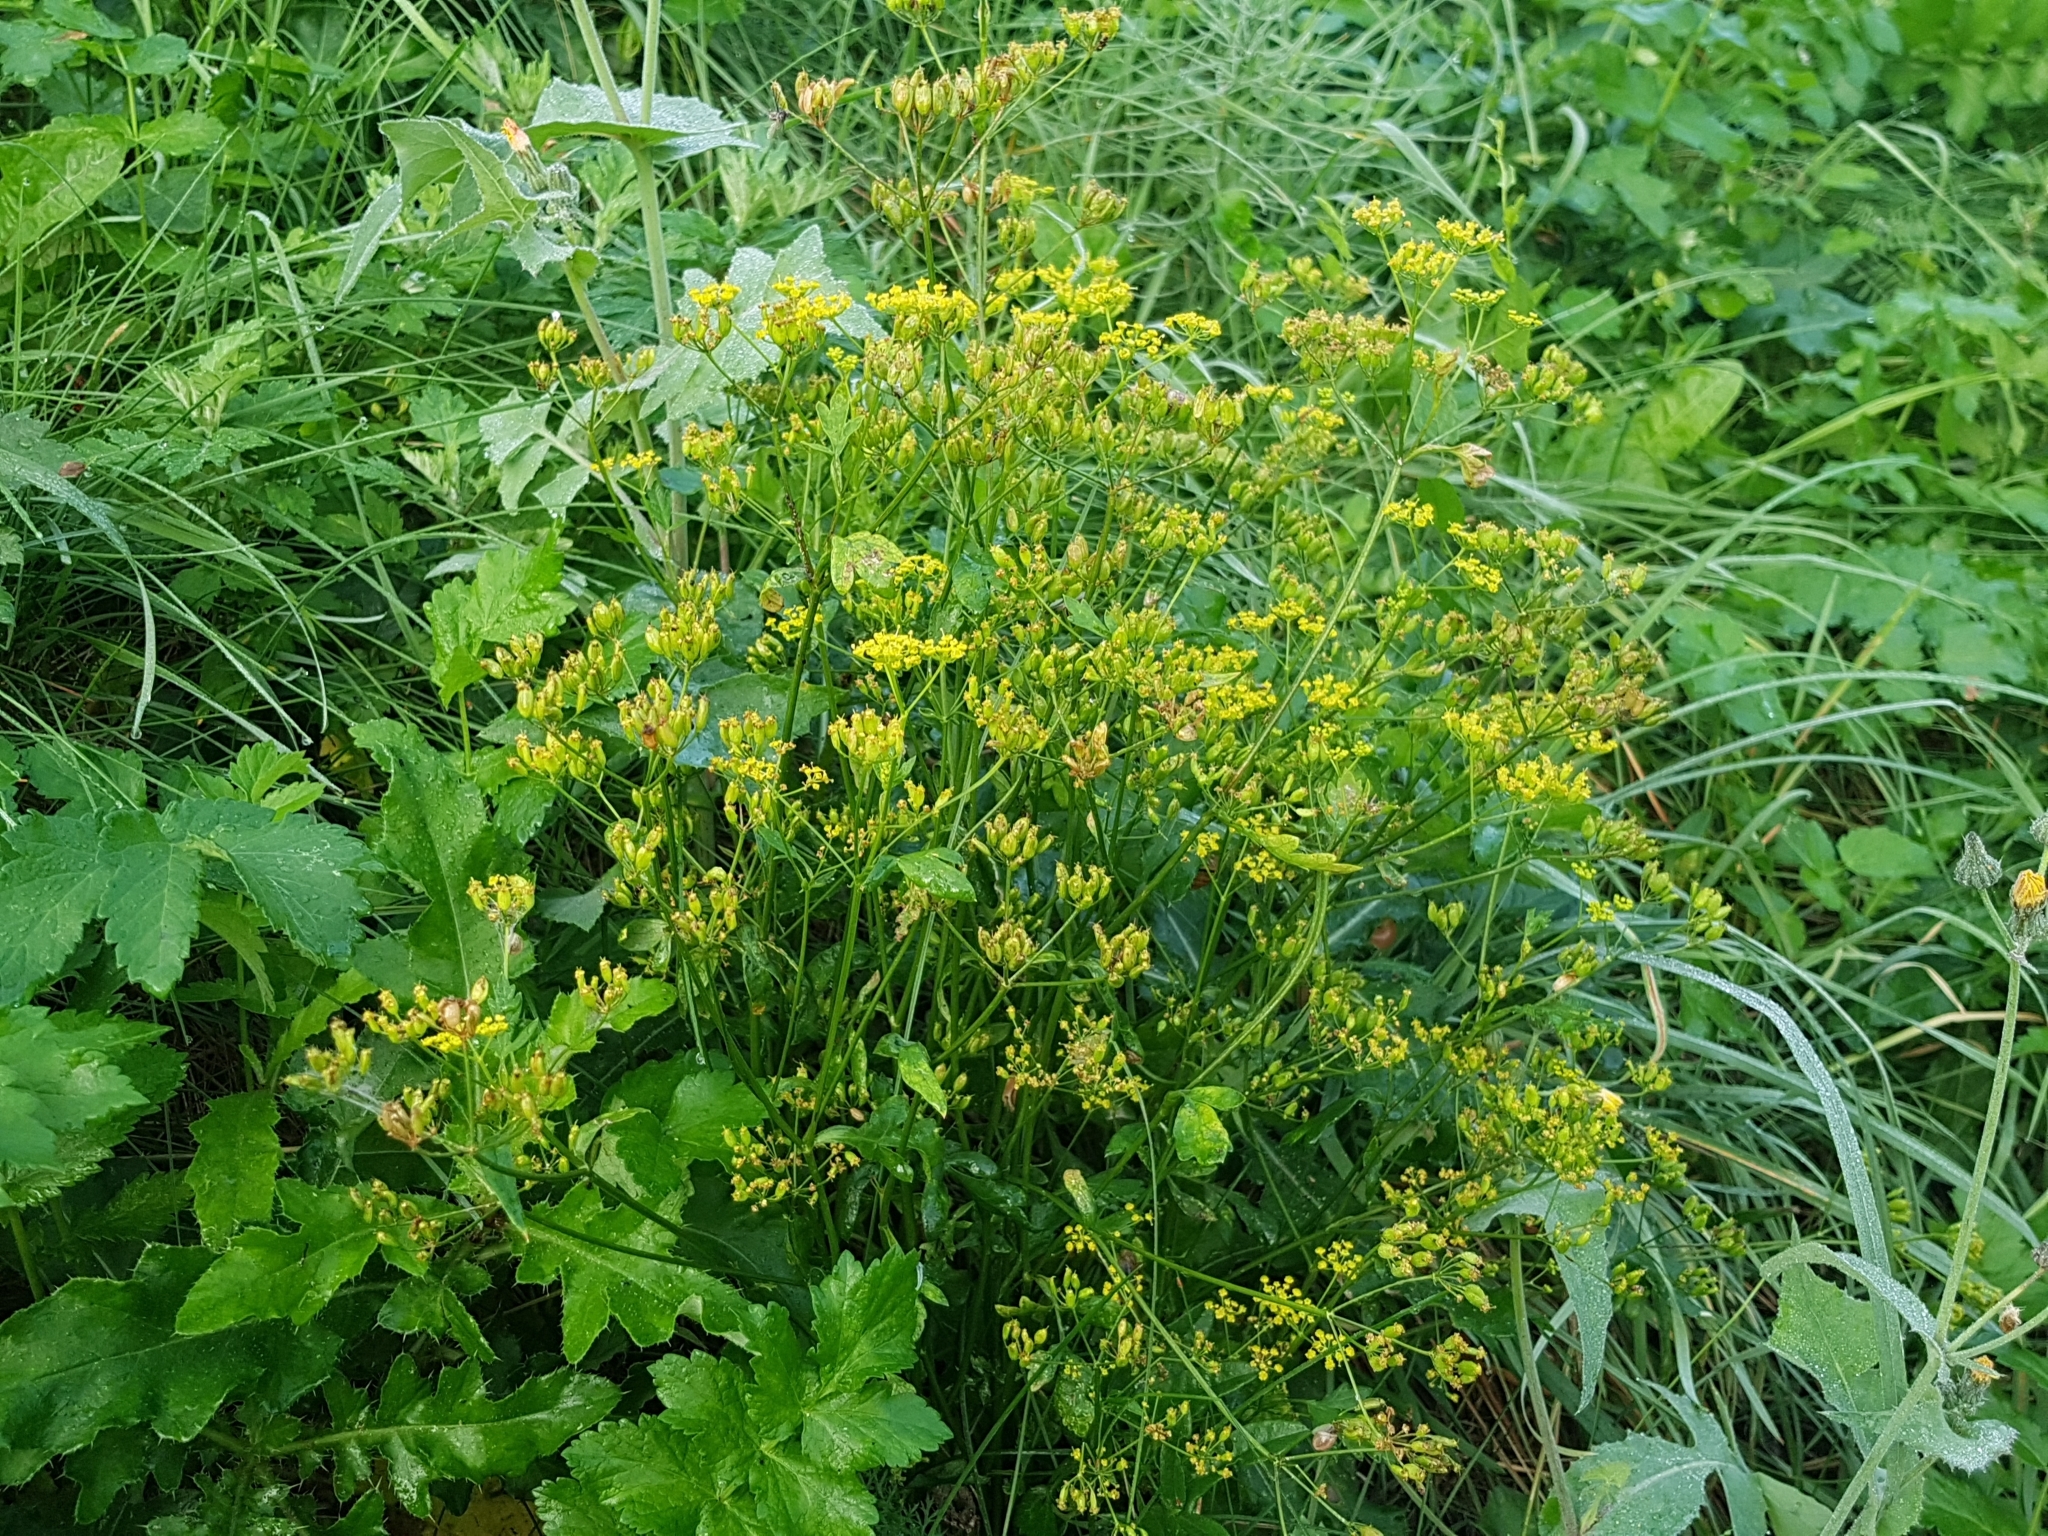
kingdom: Plantae
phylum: Tracheophyta
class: Magnoliopsida
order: Apiales
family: Apiaceae
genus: Pastinaca
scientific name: Pastinaca sativa
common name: Wild parsnip
